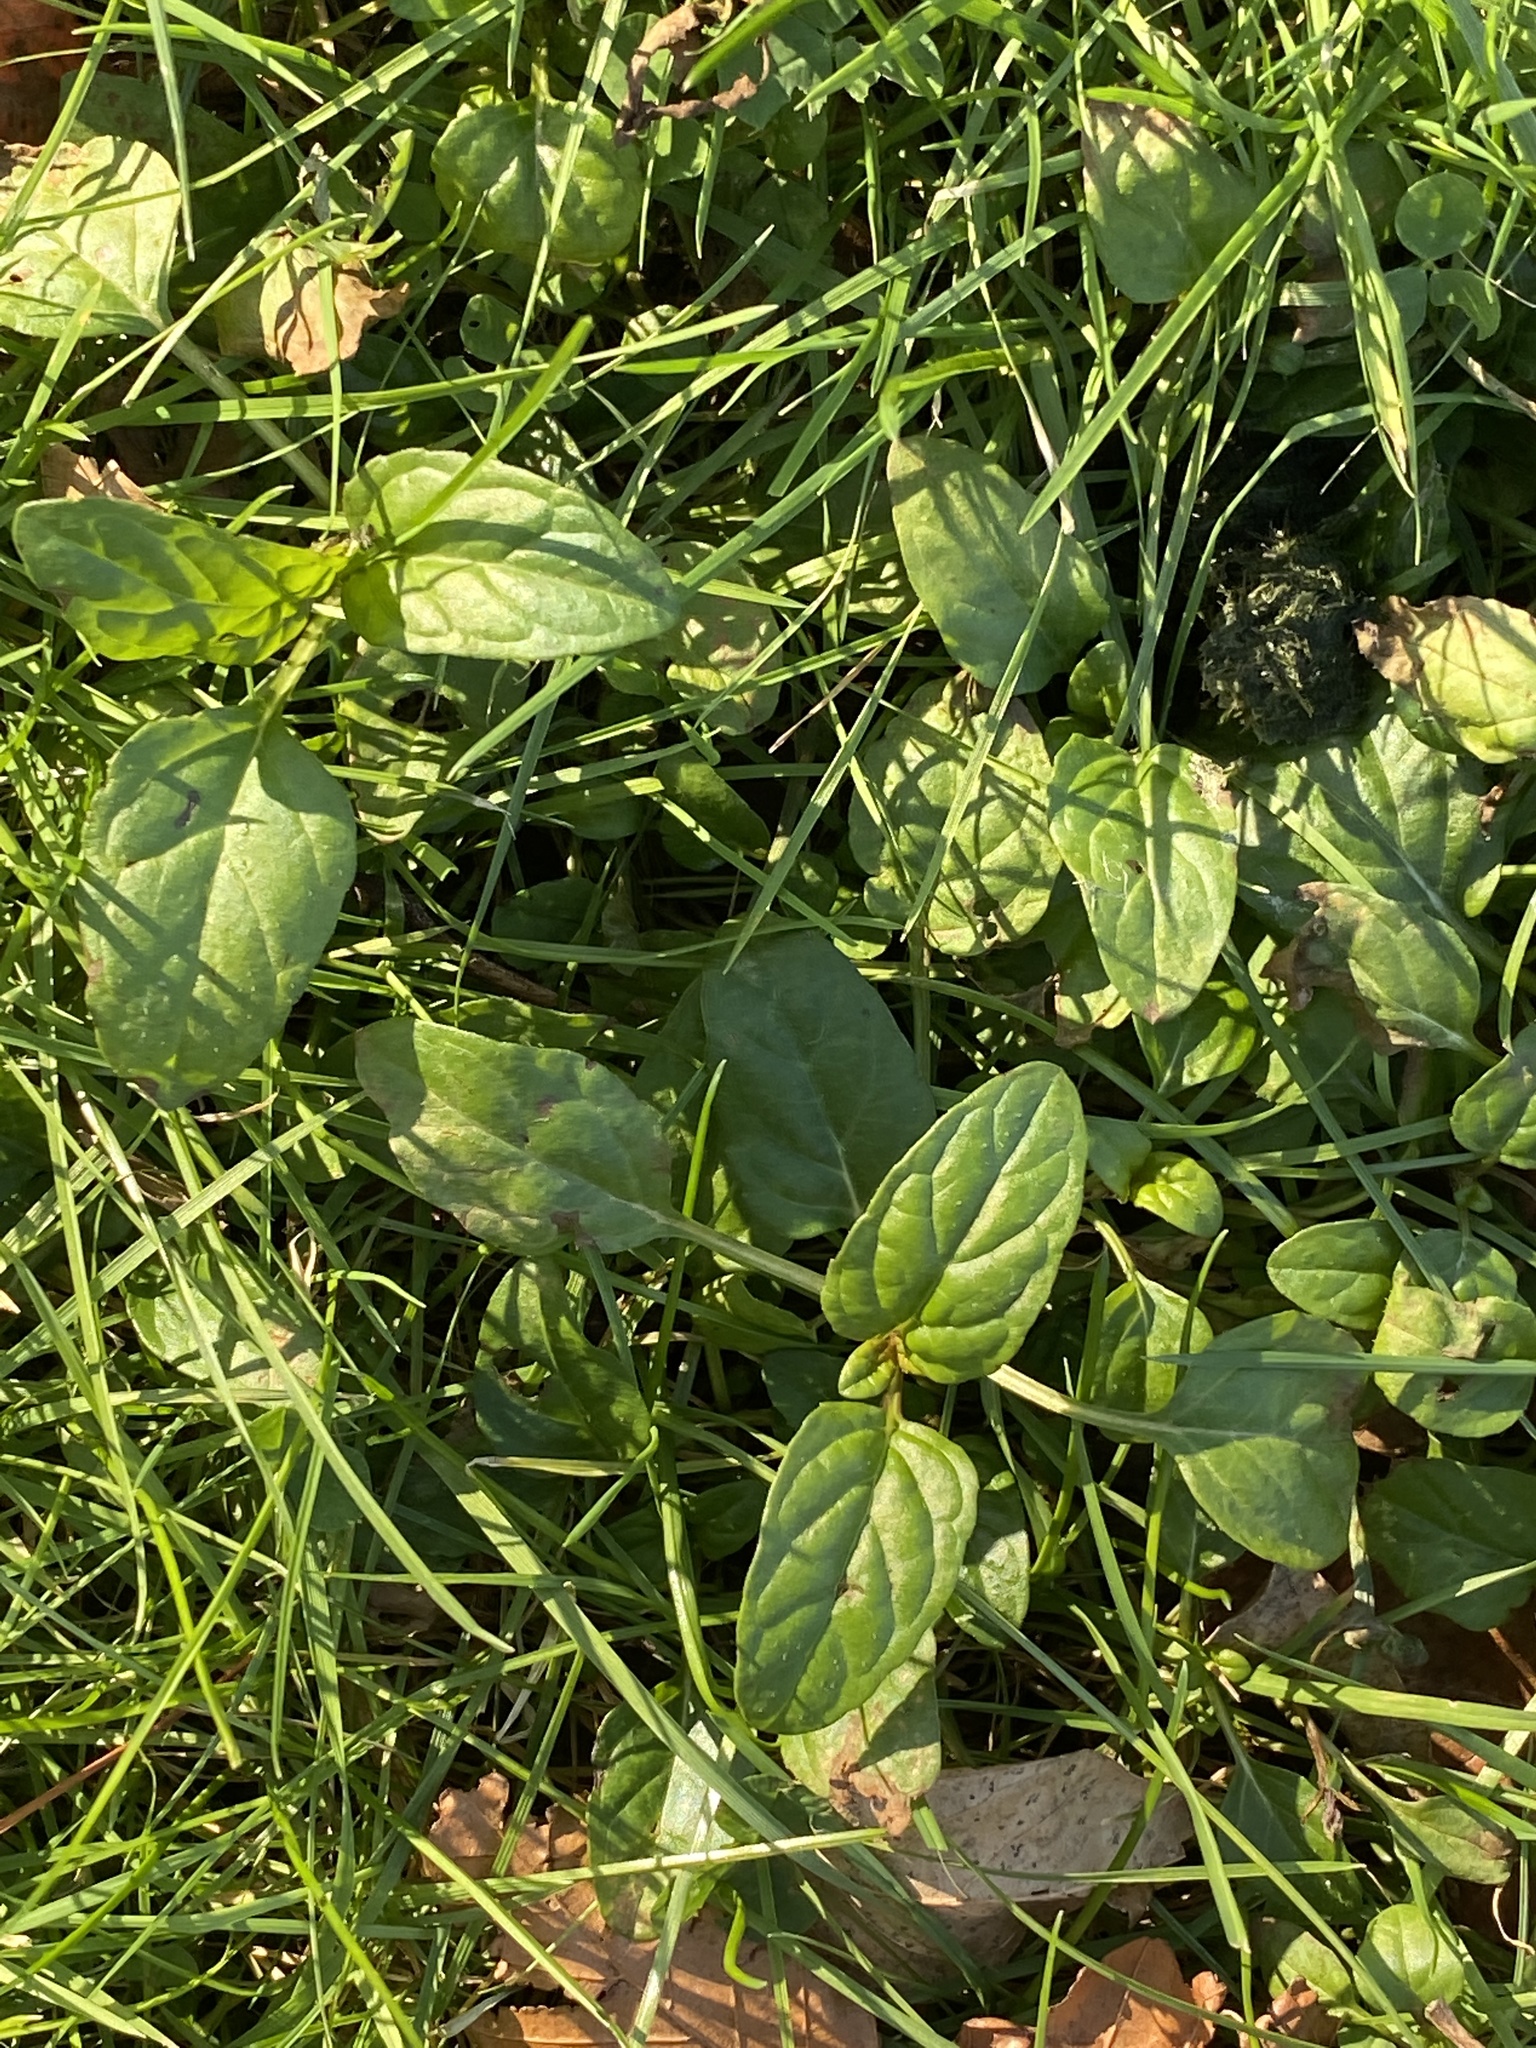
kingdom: Plantae
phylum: Tracheophyta
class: Magnoliopsida
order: Lamiales
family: Lamiaceae
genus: Prunella
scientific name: Prunella vulgaris
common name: Heal-all
